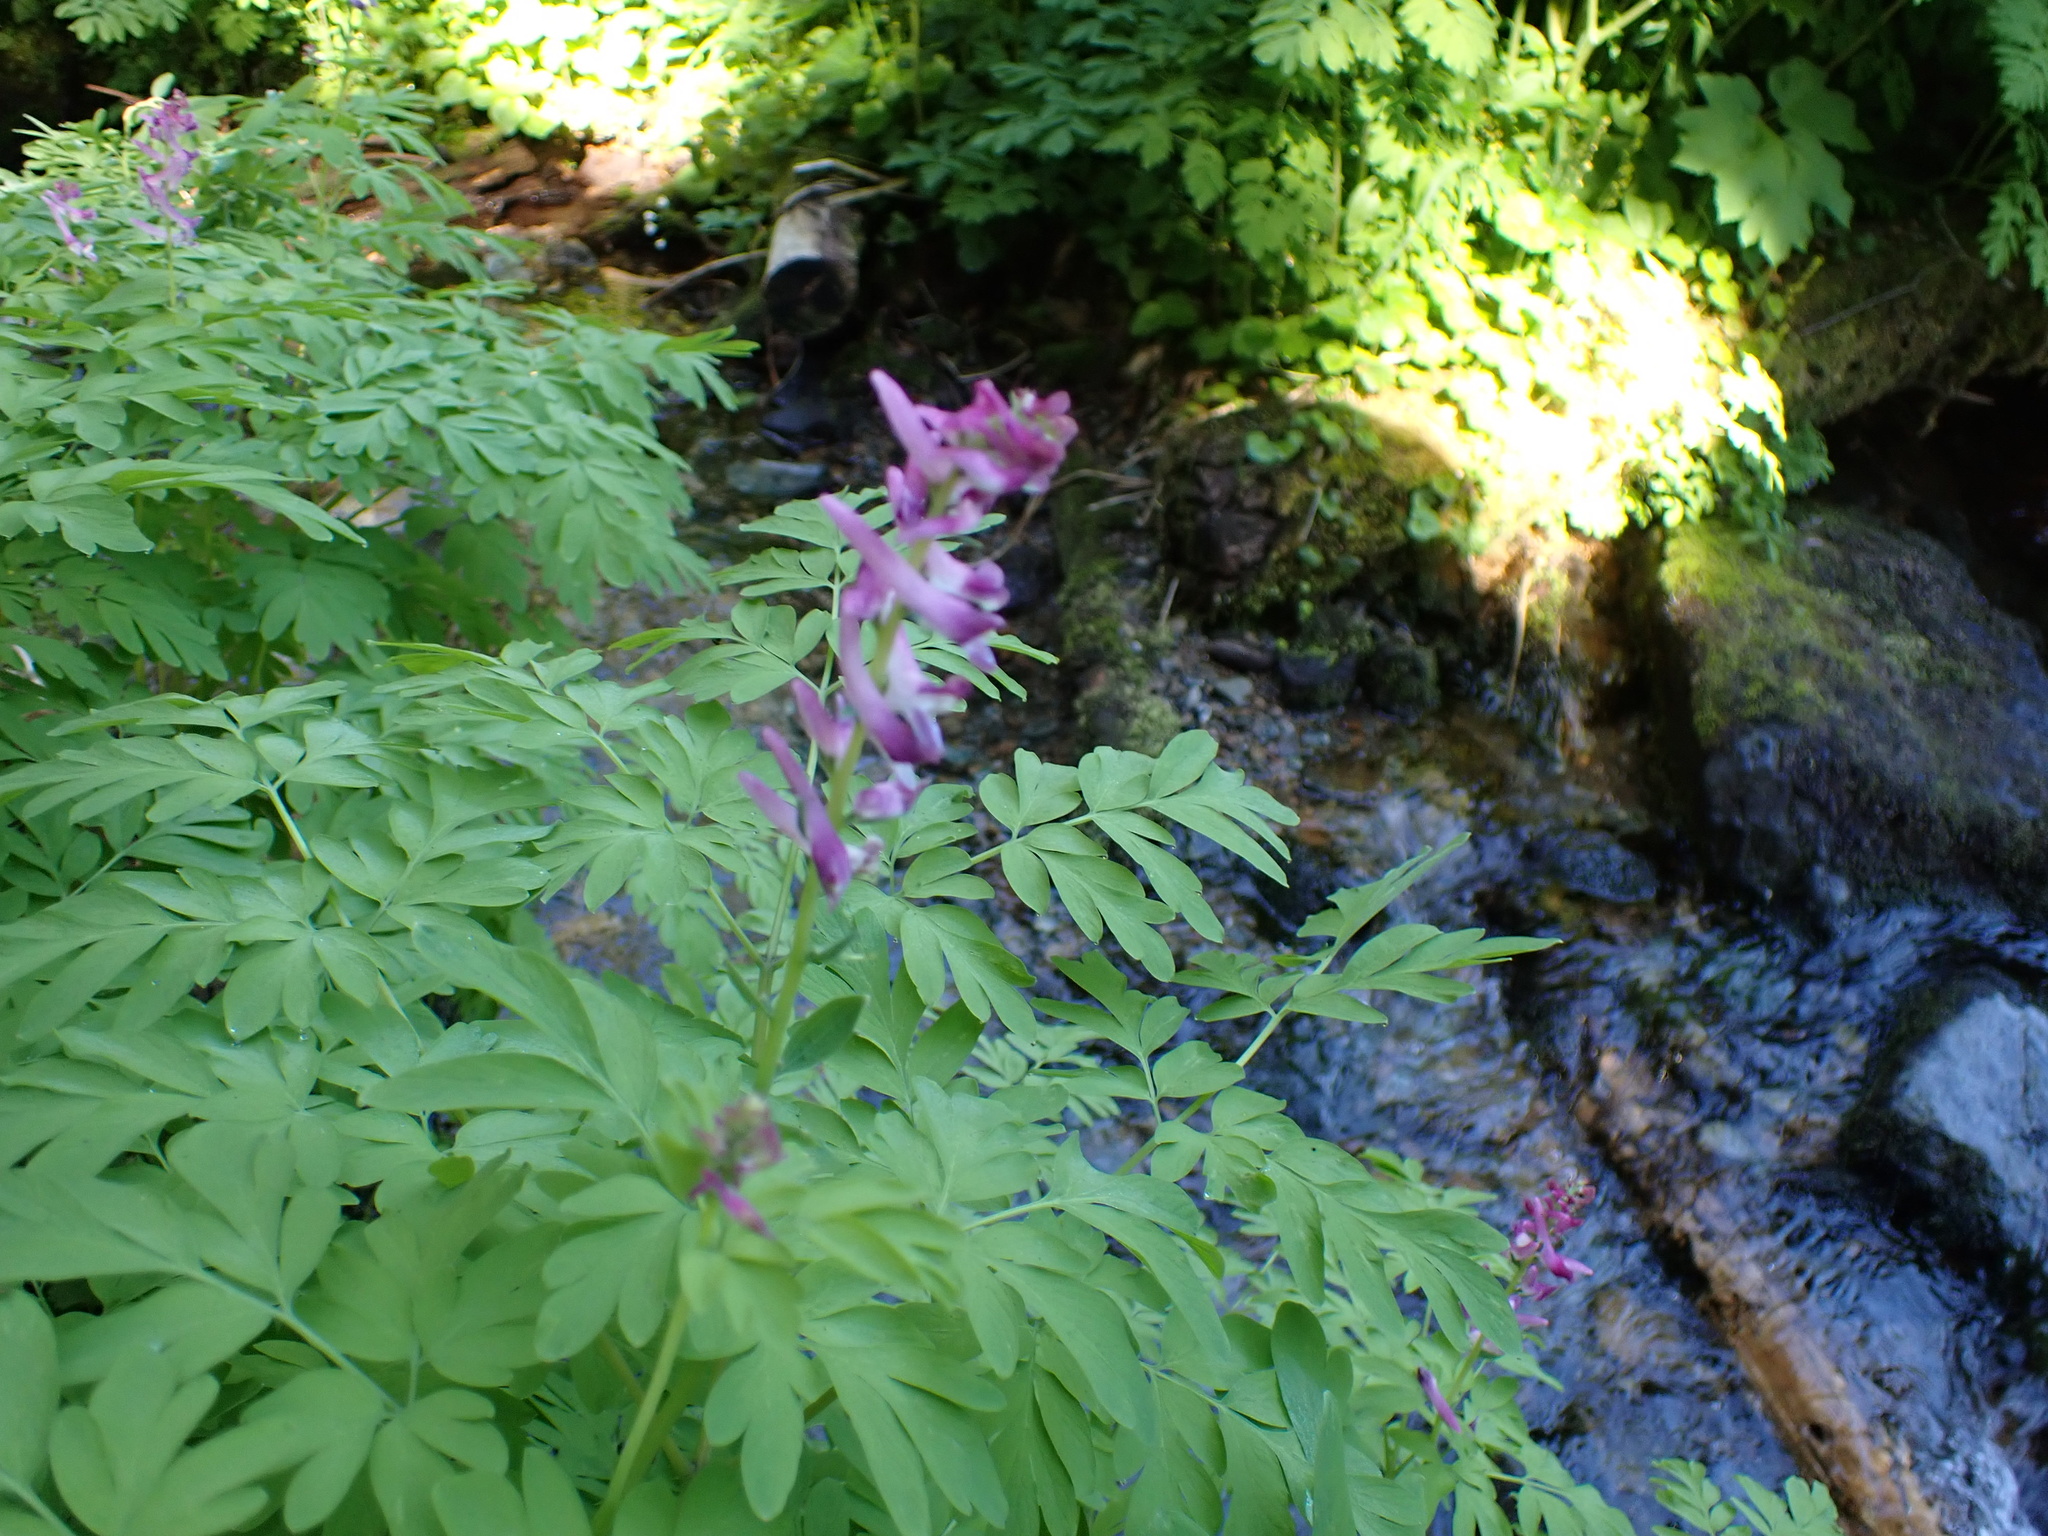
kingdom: Plantae
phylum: Tracheophyta
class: Magnoliopsida
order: Ranunculales
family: Papaveraceae
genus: Corydalis
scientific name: Corydalis scouleri
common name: Scouler's corydalis
